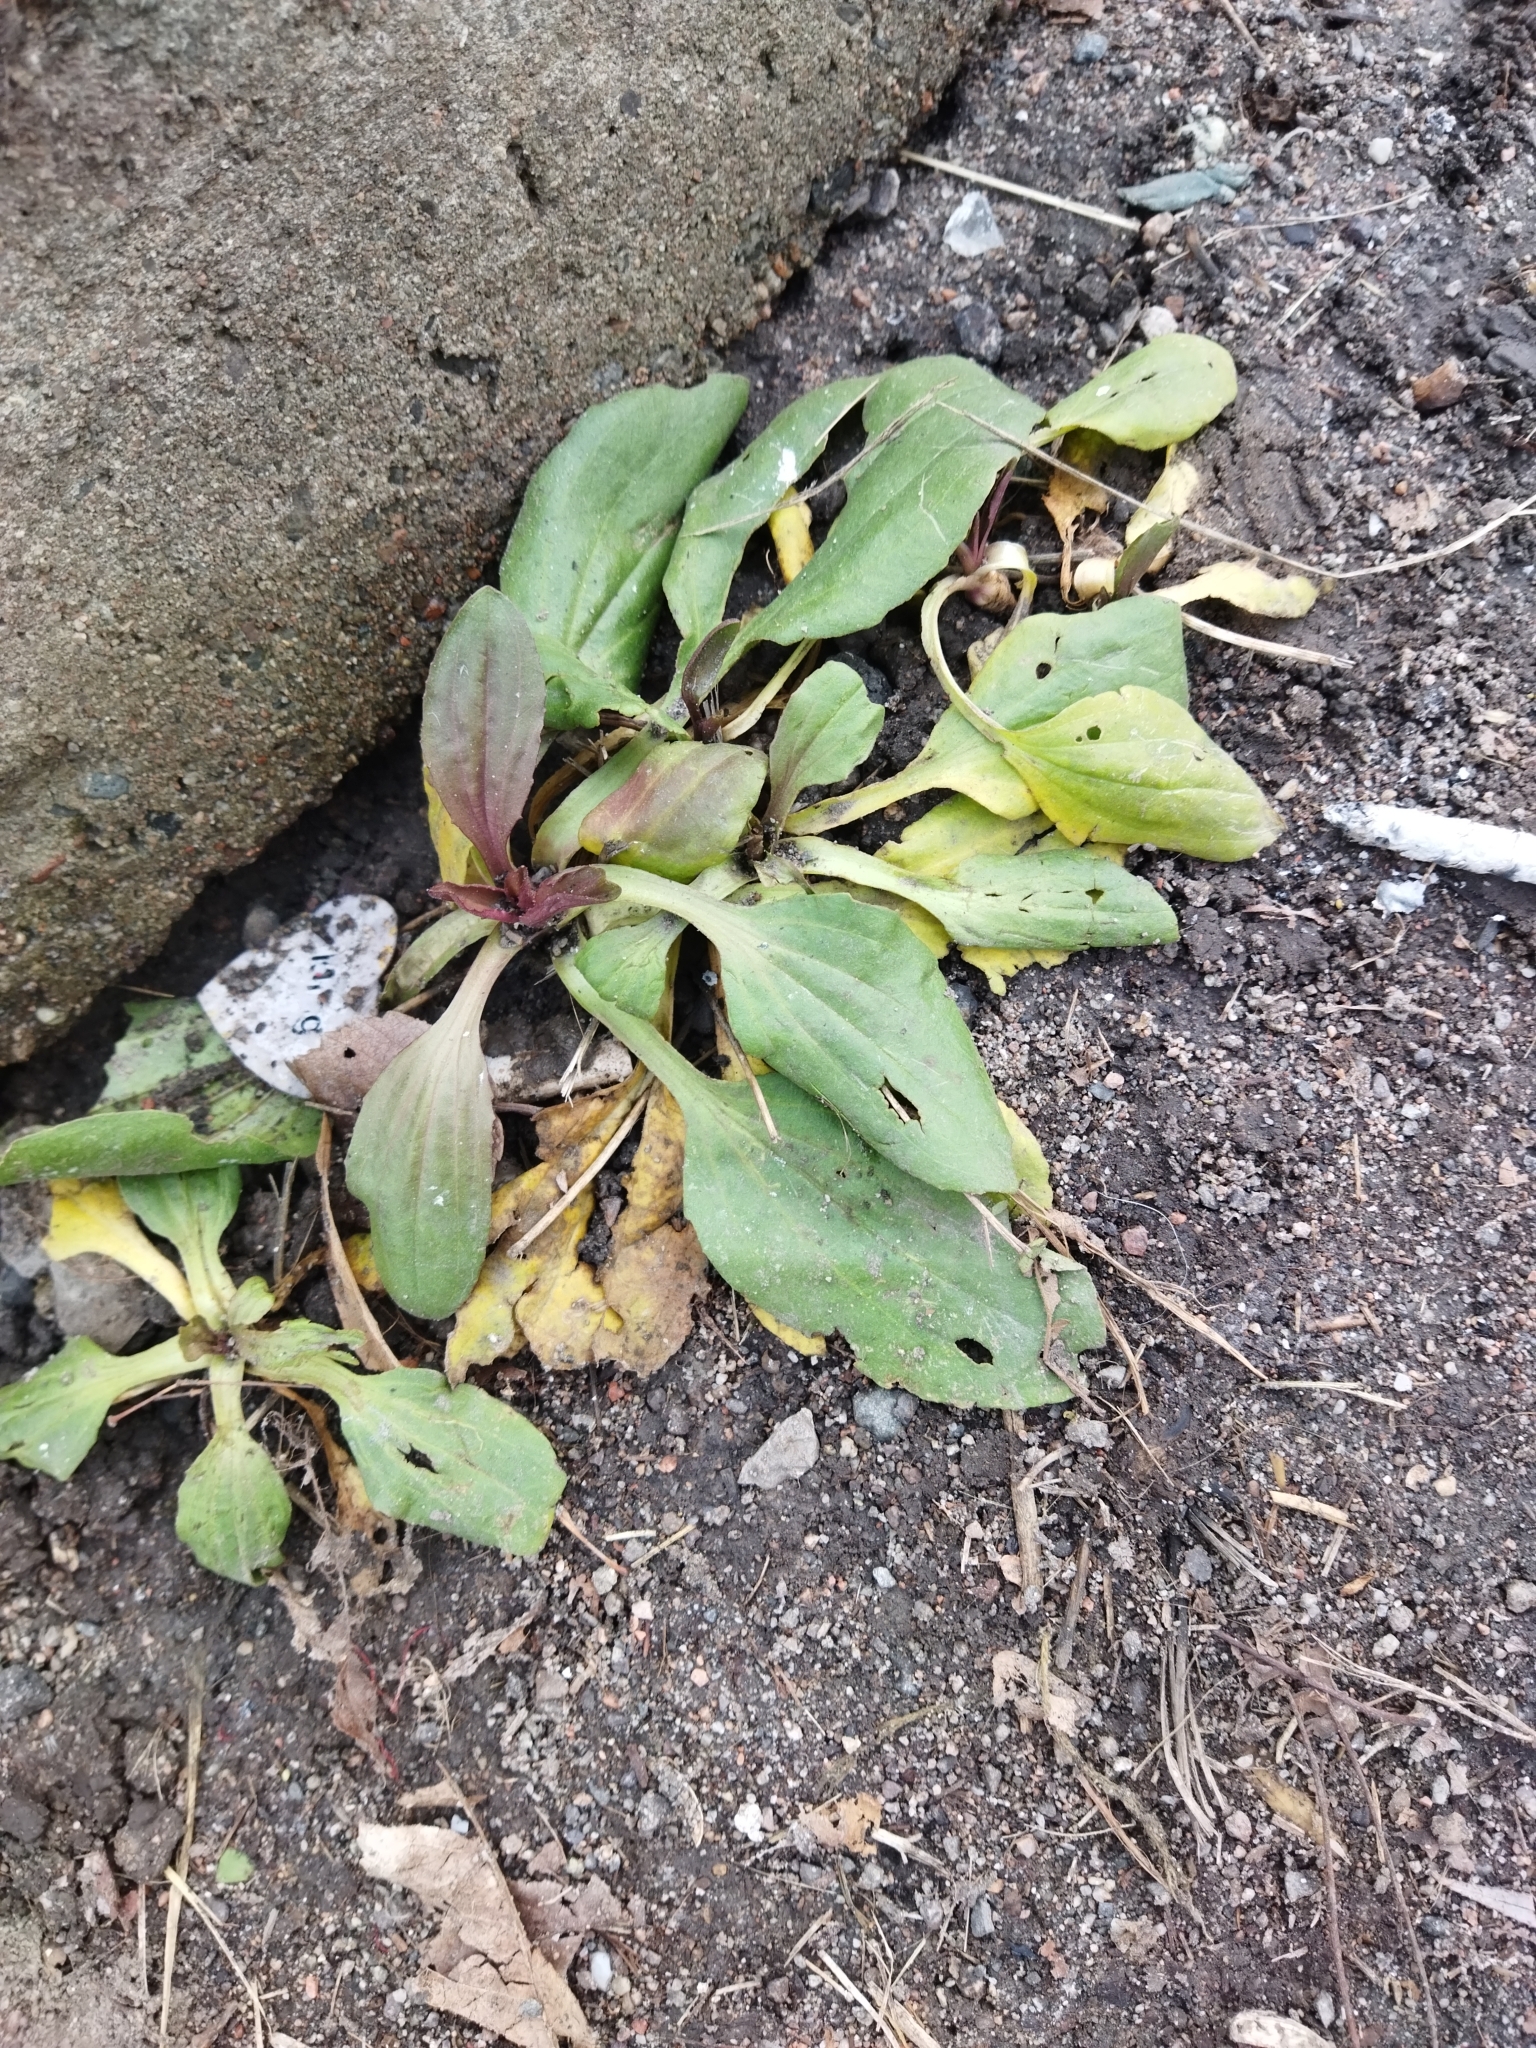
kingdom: Plantae
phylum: Tracheophyta
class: Magnoliopsida
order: Lamiales
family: Plantaginaceae
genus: Plantago
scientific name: Plantago major
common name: Common plantain
